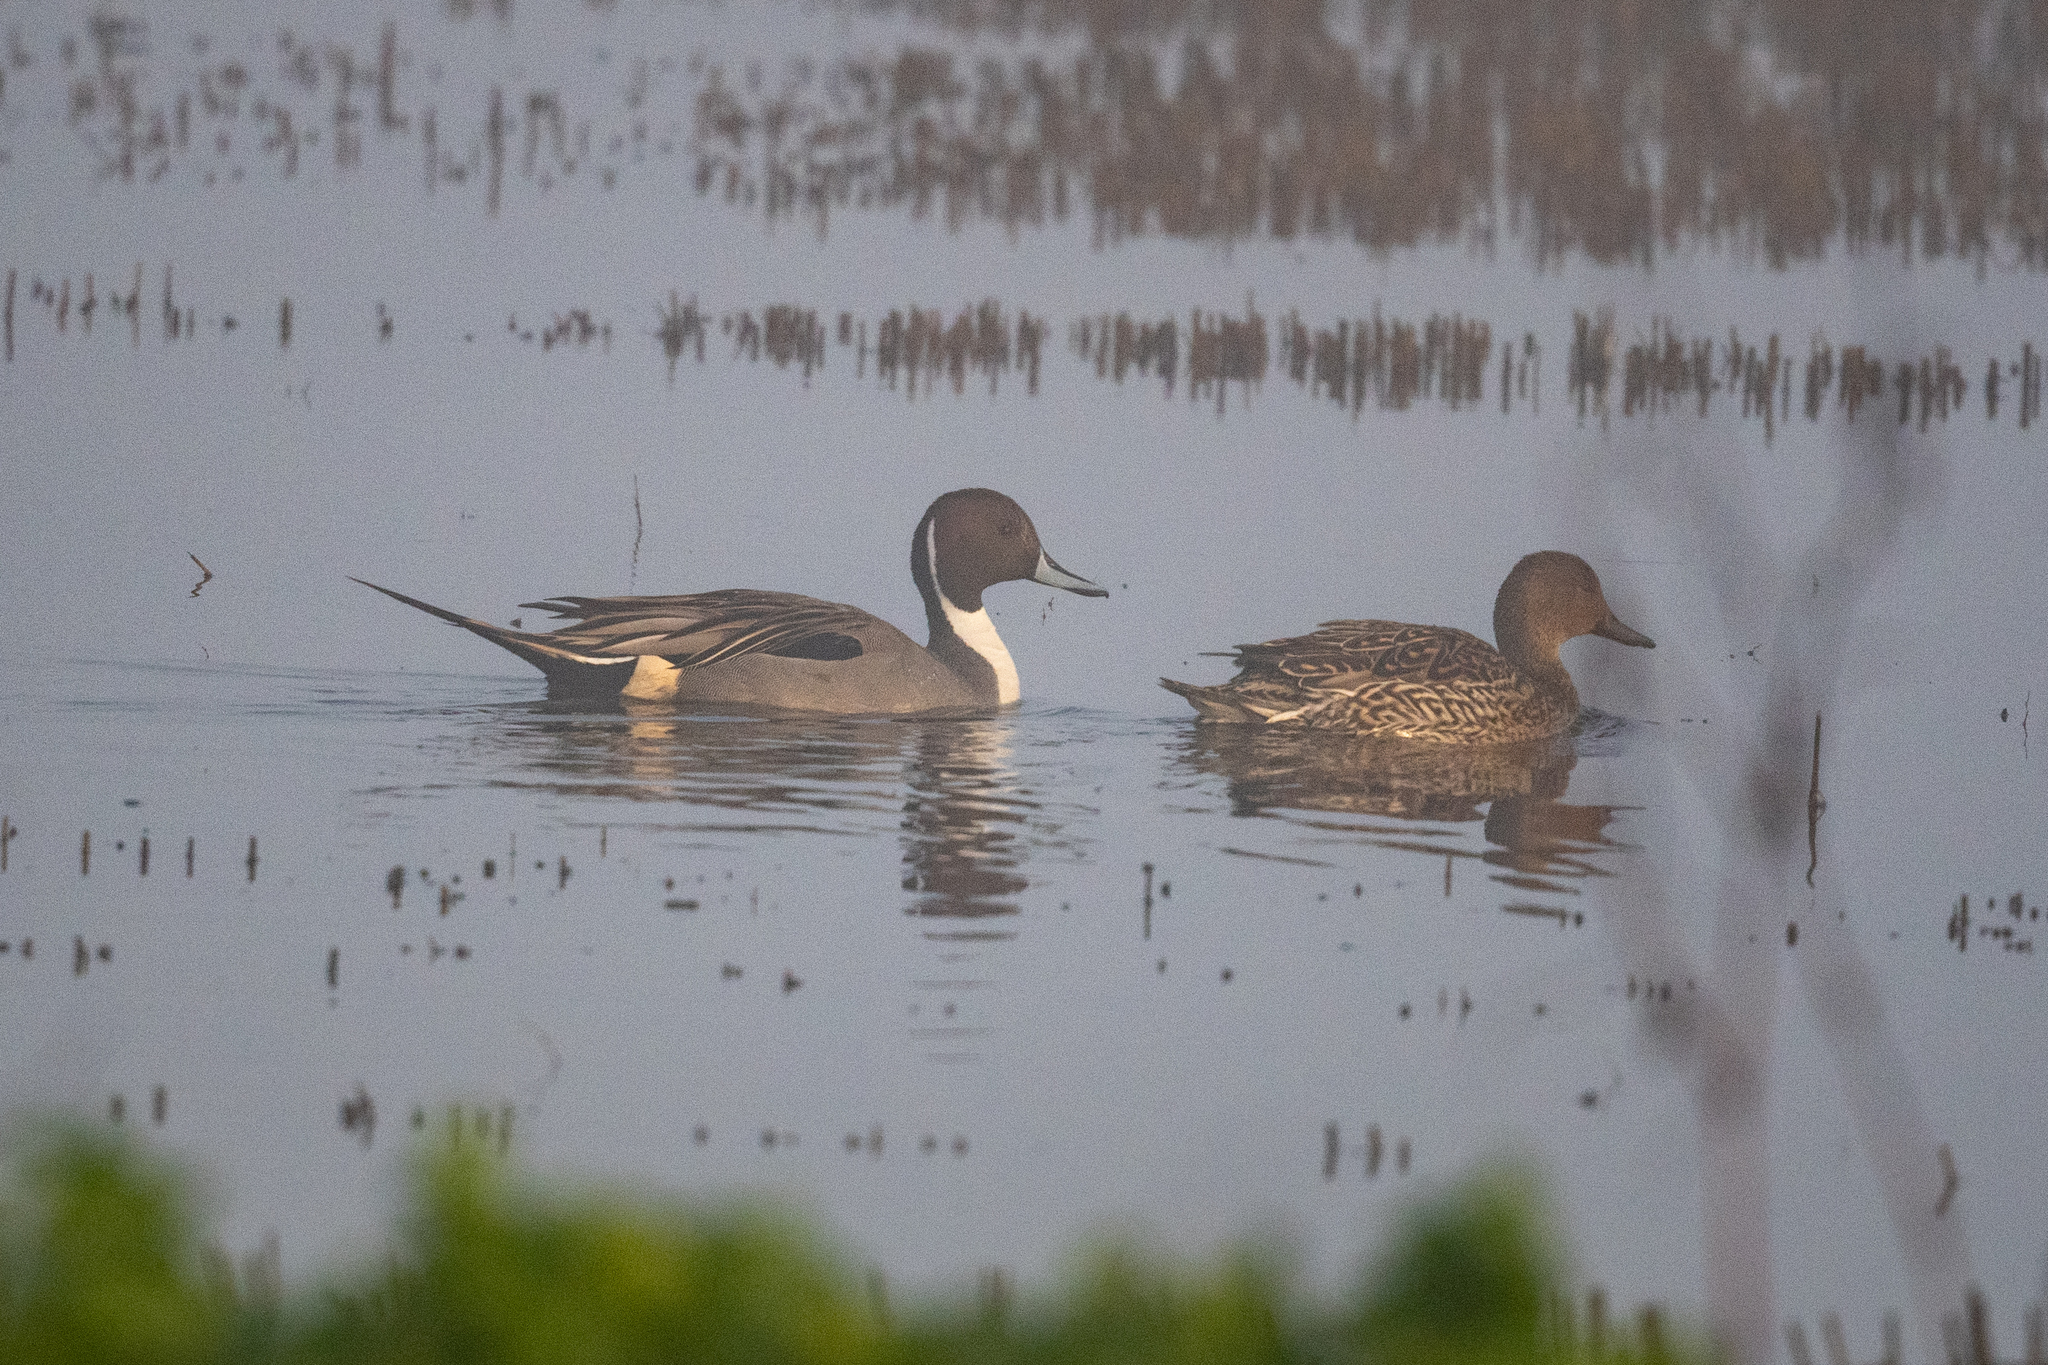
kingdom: Animalia
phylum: Chordata
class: Aves
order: Anseriformes
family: Anatidae
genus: Anas
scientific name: Anas acuta
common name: Northern pintail
